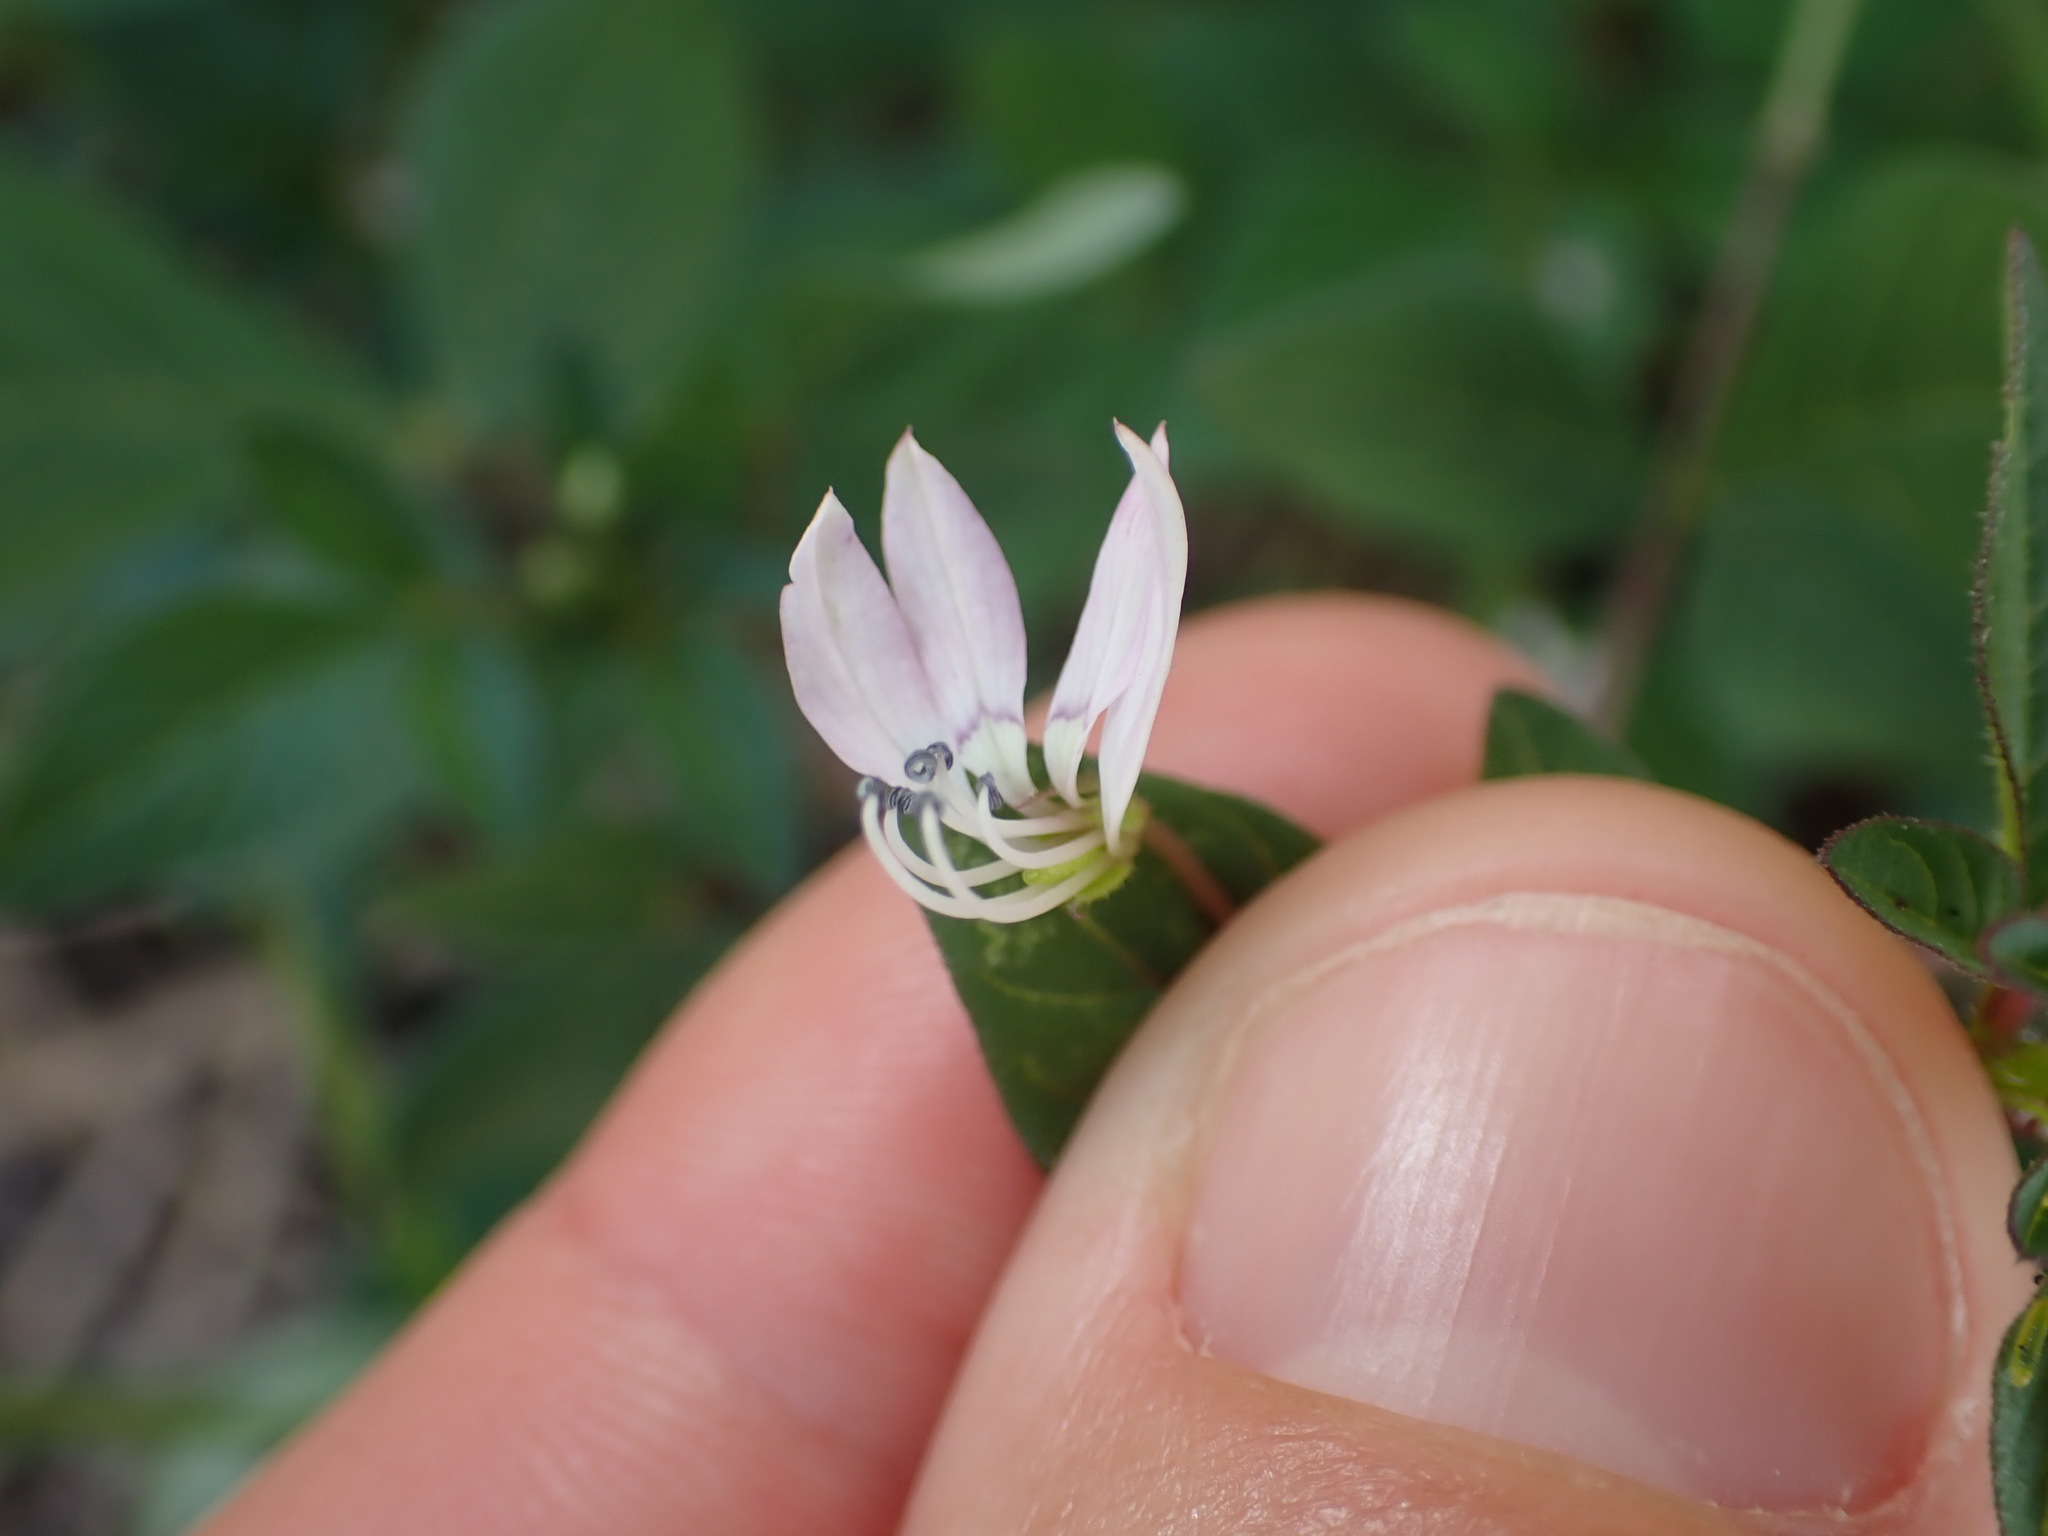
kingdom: Plantae
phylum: Tracheophyta
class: Magnoliopsida
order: Brassicales
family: Cleomaceae
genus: Sieruela
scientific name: Sieruela rutidosperma
